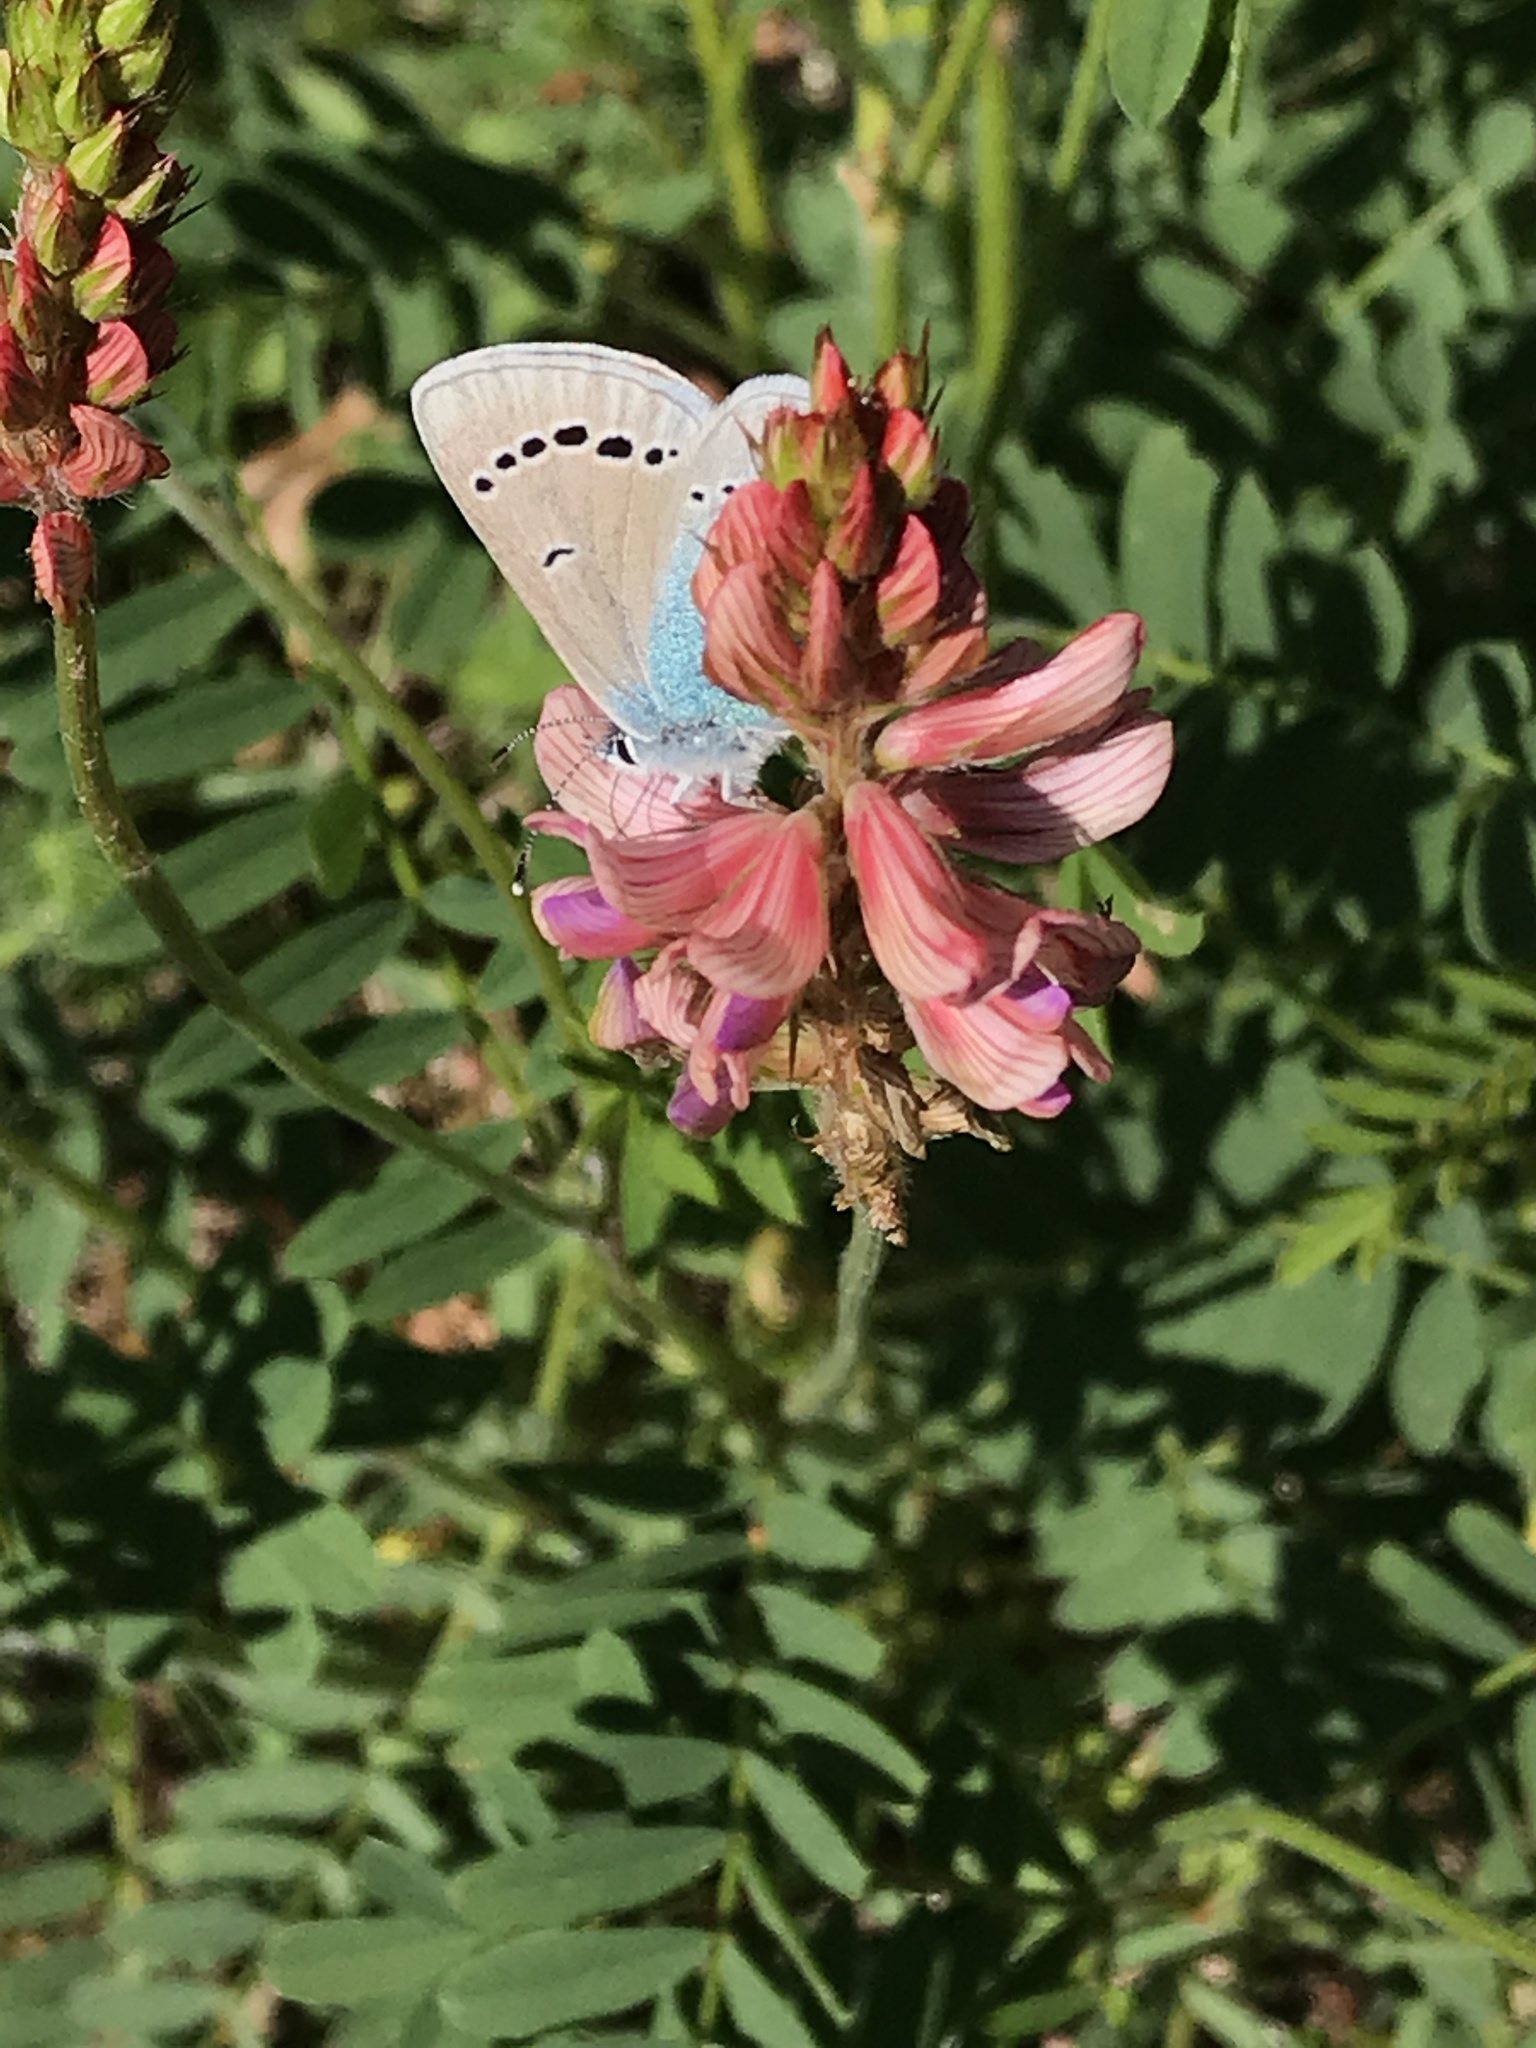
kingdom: Animalia
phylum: Arthropoda
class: Insecta
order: Lepidoptera
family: Lycaenidae
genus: Glaucopsyche
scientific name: Glaucopsyche alexis
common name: Green-underside blue
